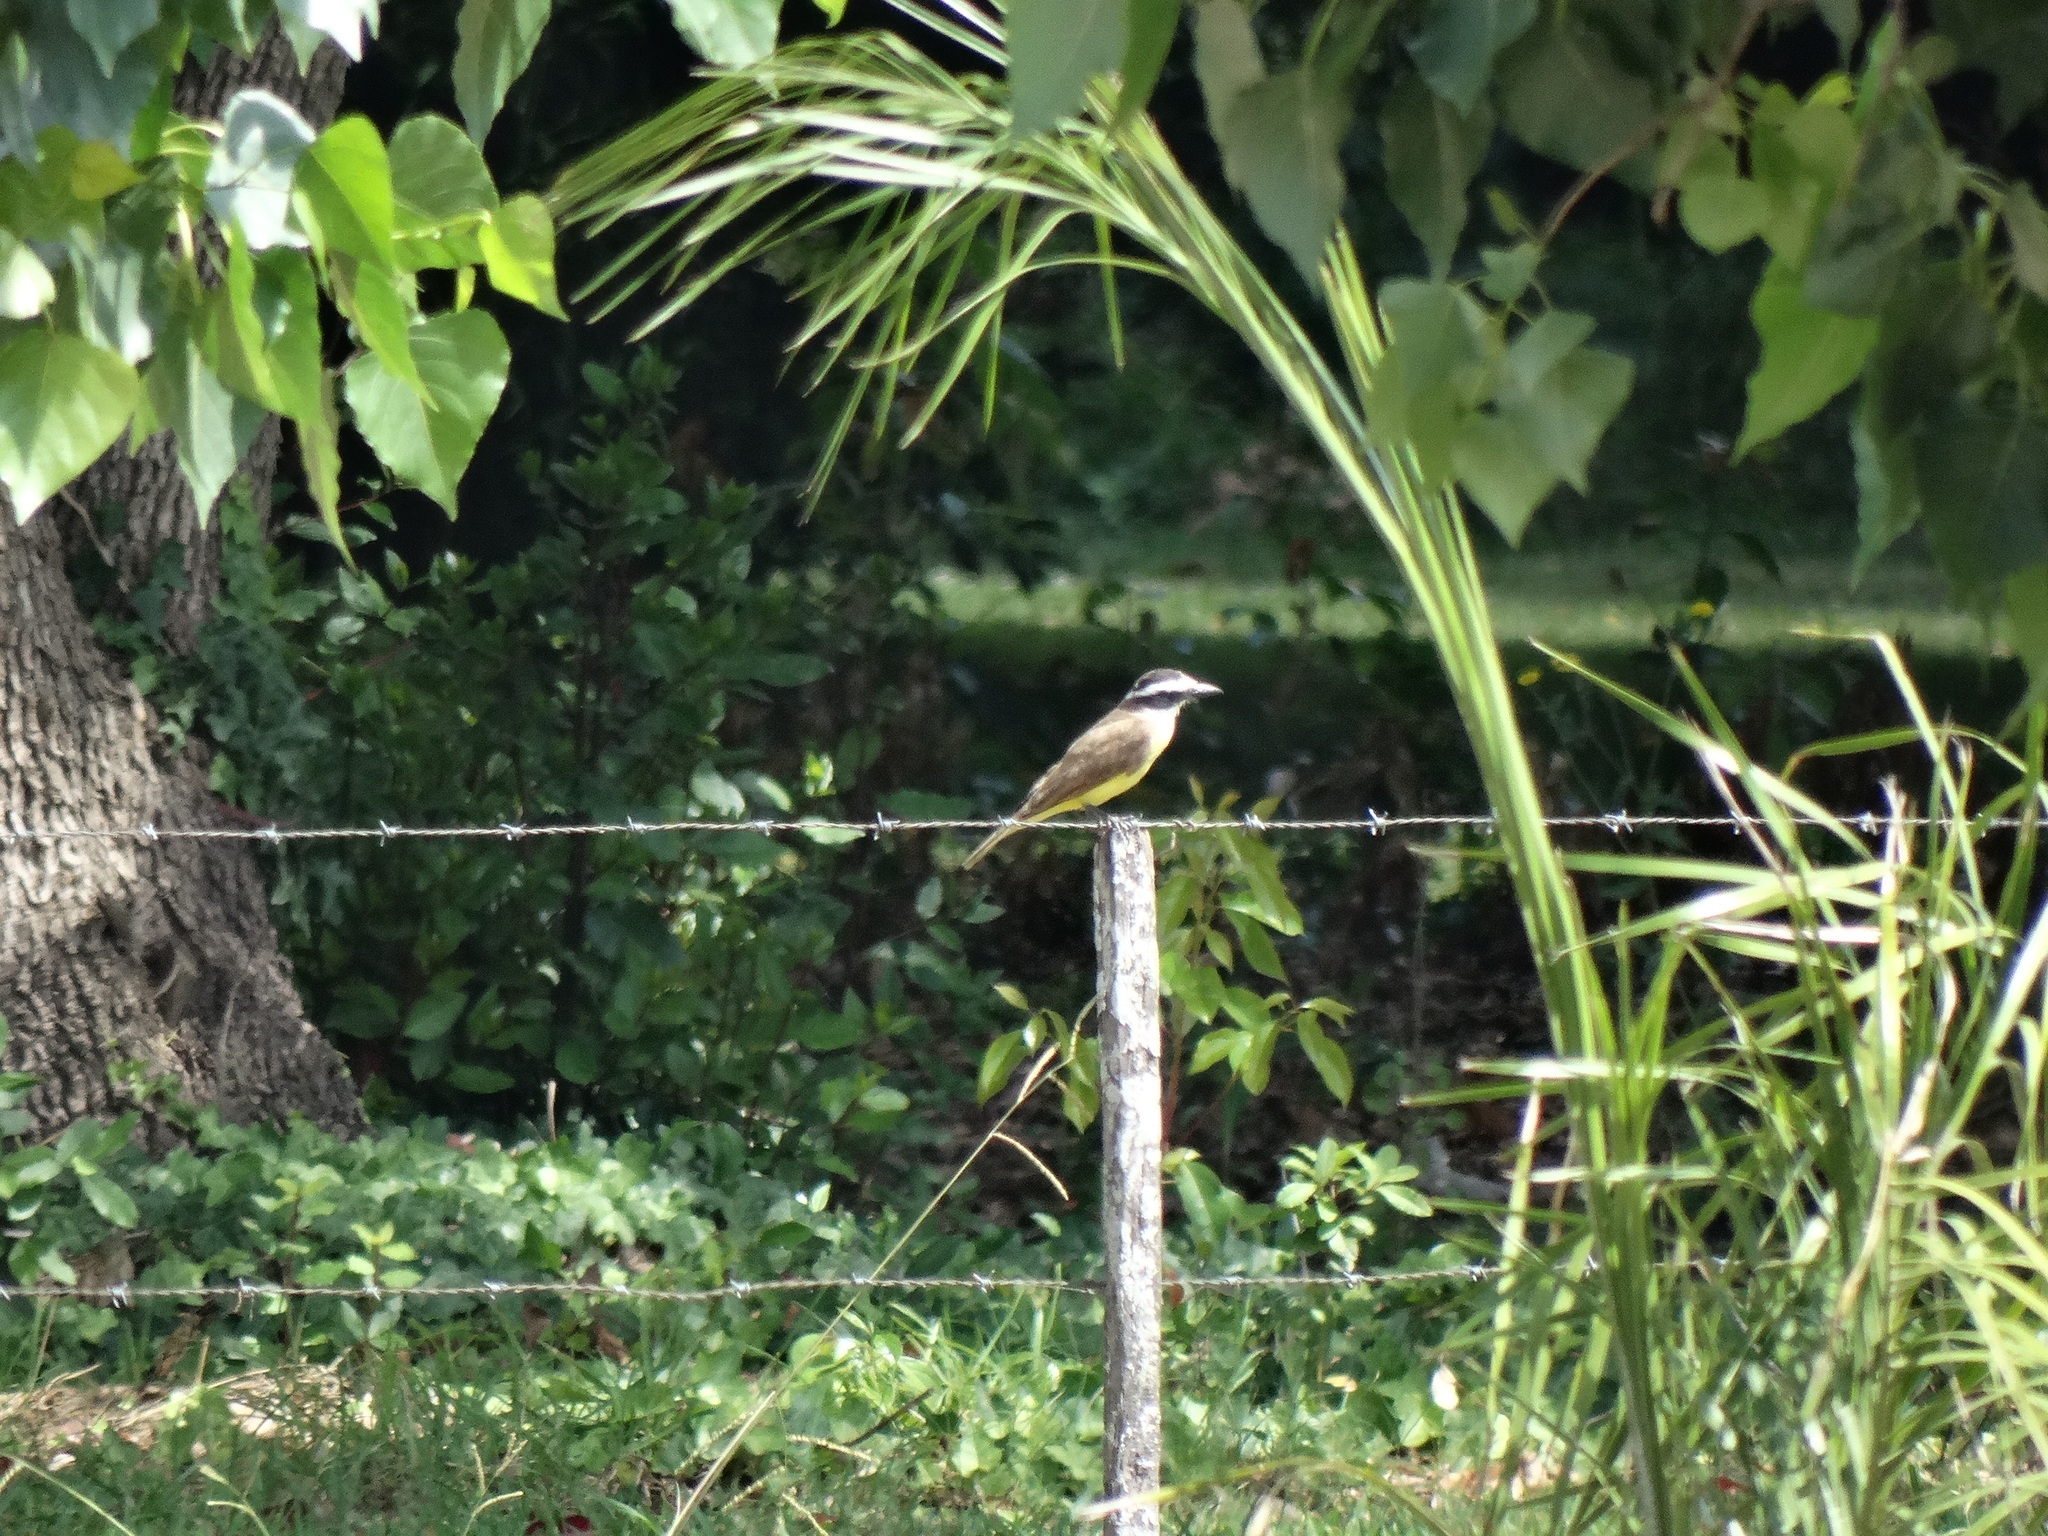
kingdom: Animalia
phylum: Chordata
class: Aves
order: Passeriformes
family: Tyrannidae
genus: Pitangus
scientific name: Pitangus sulphuratus
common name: Great kiskadee
